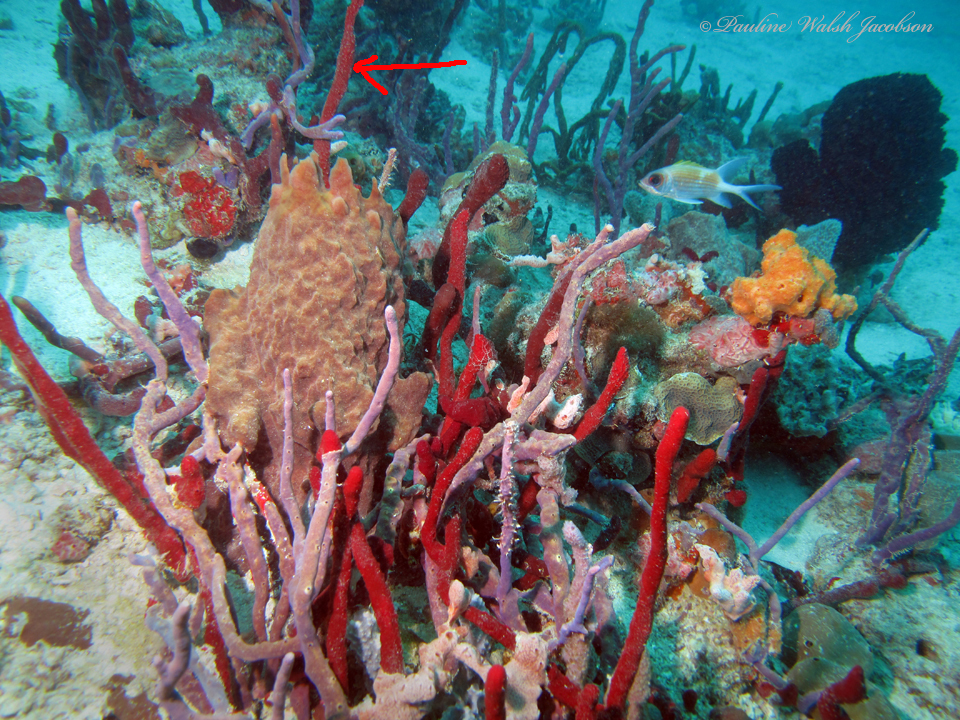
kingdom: Animalia
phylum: Porifera
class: Demospongiae
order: Haplosclerida
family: Niphatidae
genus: Amphimedon
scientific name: Amphimedon compressa
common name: Red sponge
